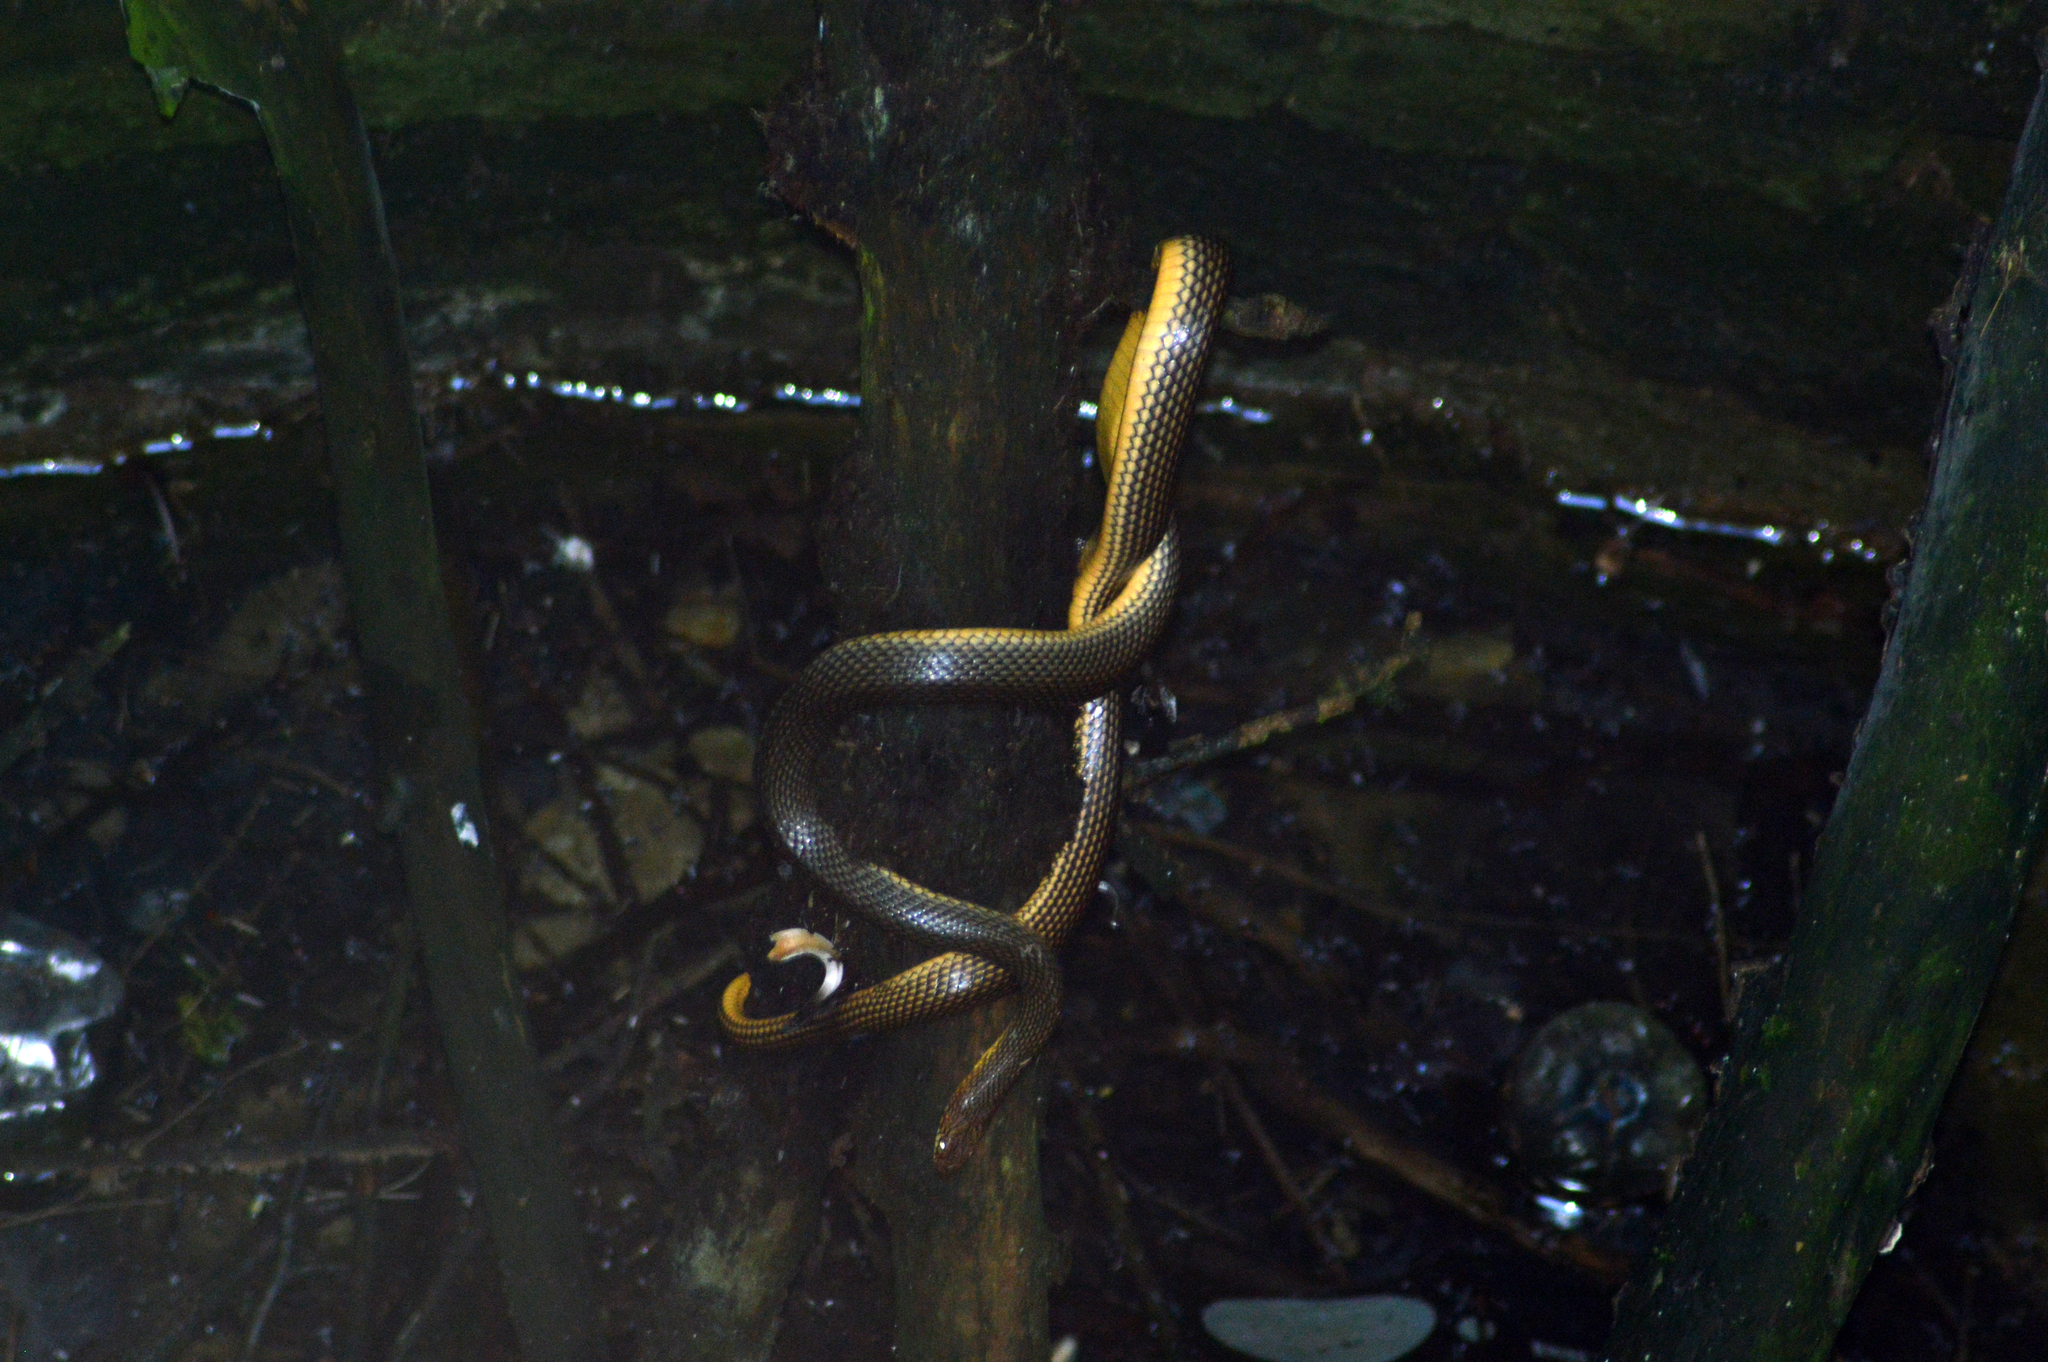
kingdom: Animalia
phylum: Chordata
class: Squamata
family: Colubridae
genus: Dolichophis
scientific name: Dolichophis caspius
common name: Large whip snake
